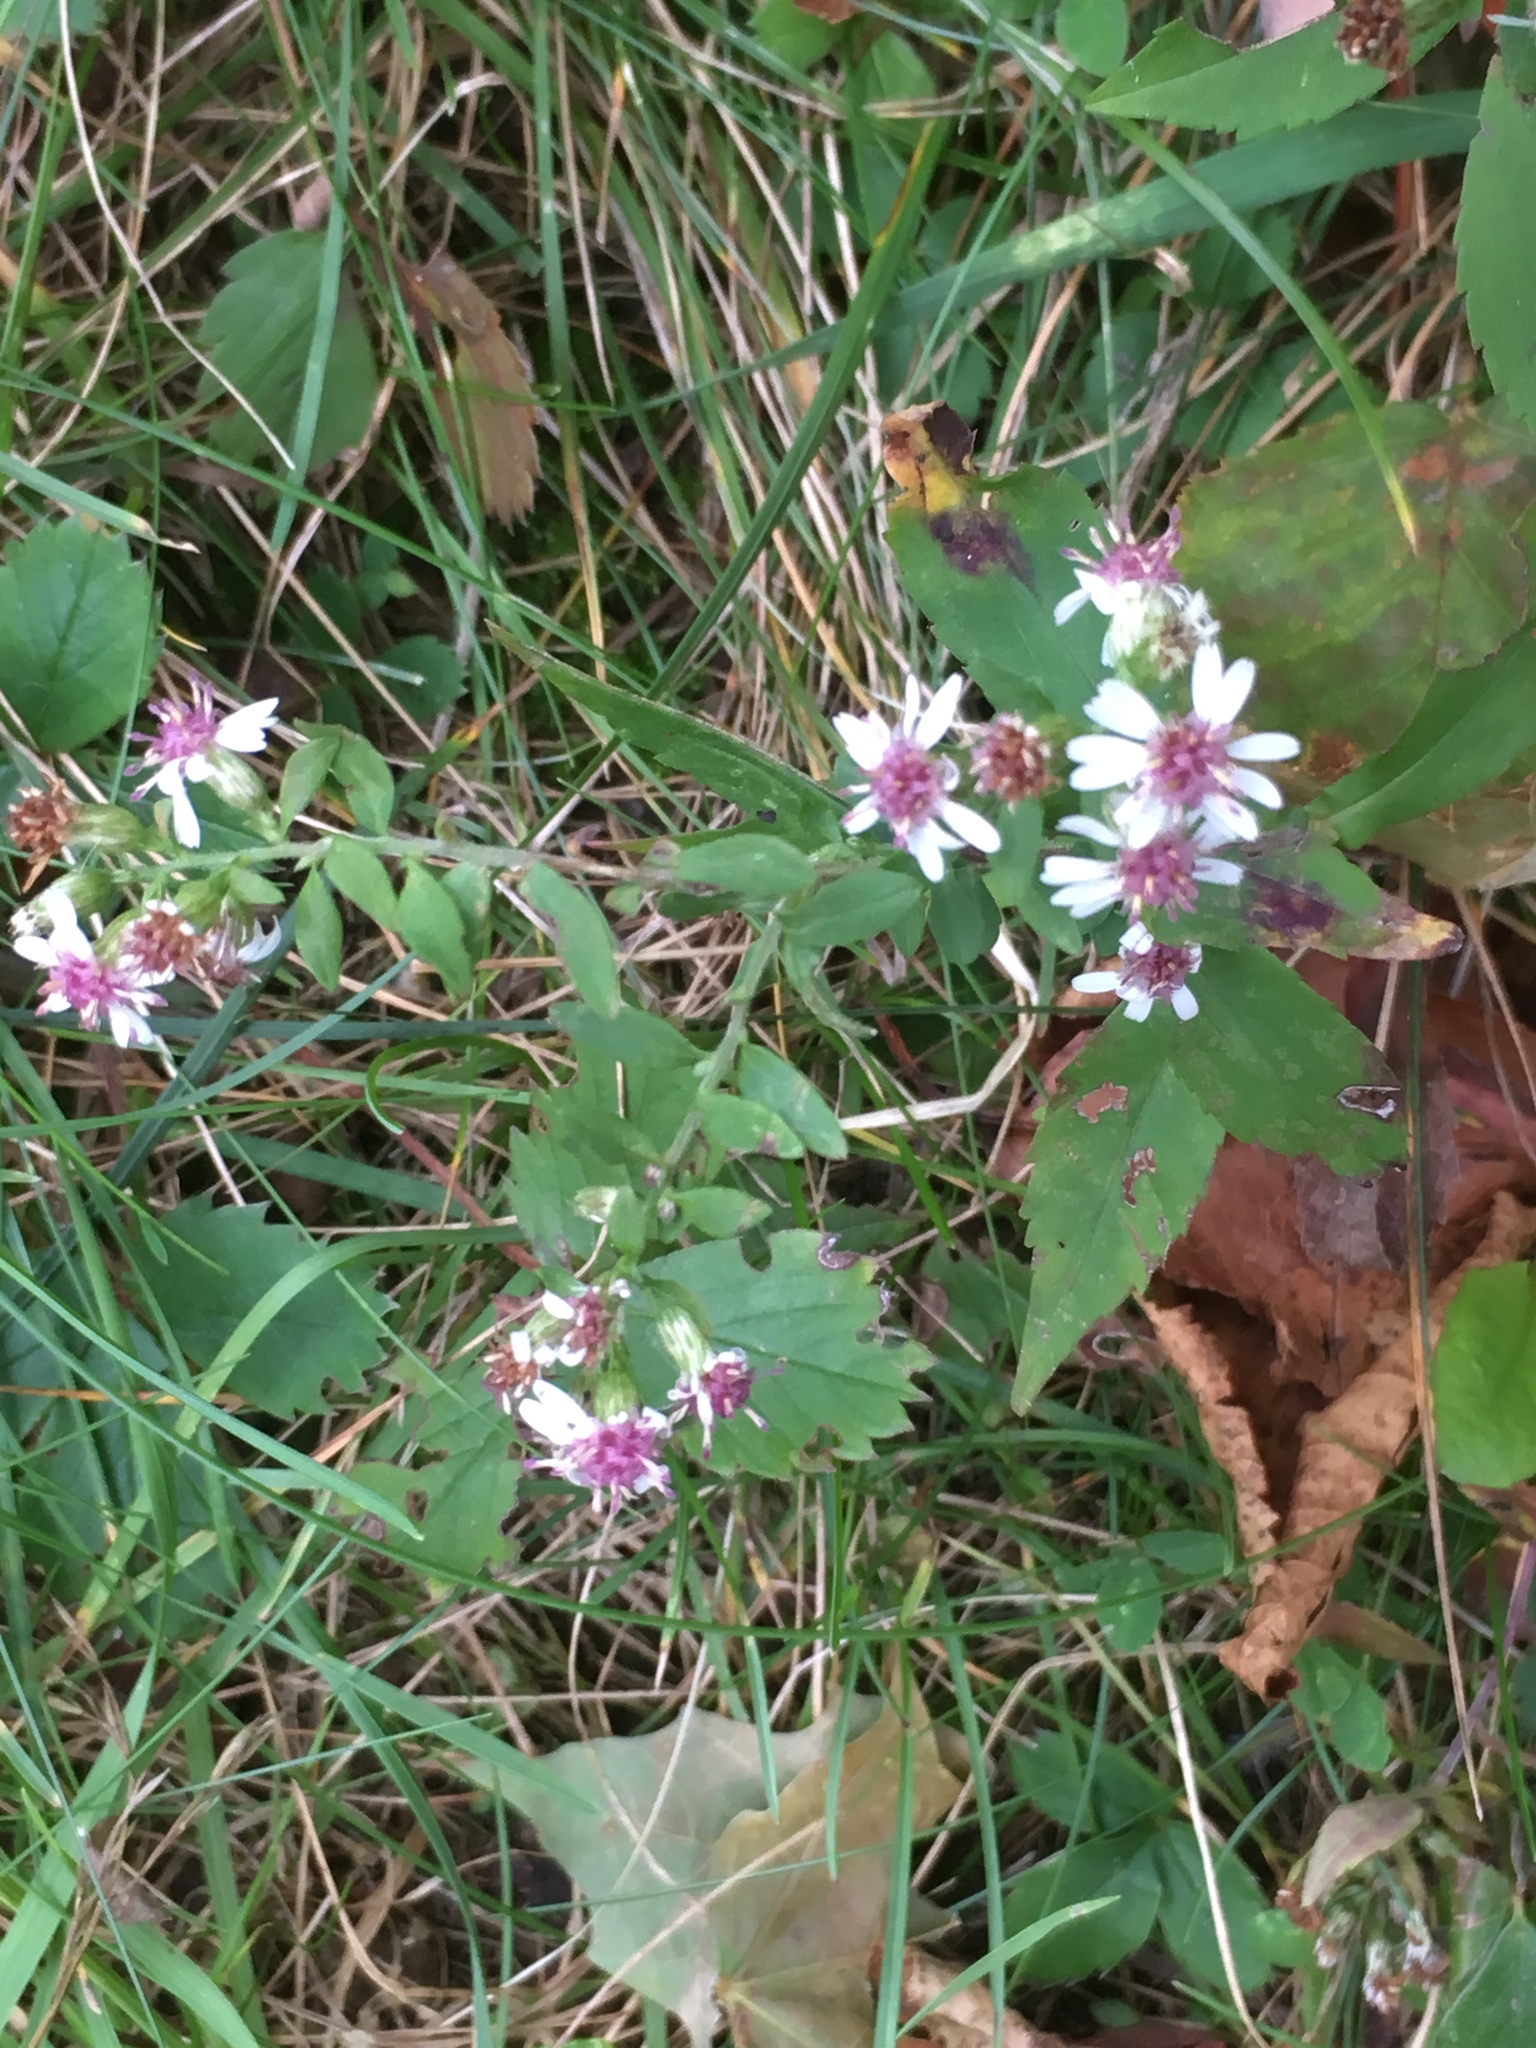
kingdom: Plantae
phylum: Tracheophyta
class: Magnoliopsida
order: Asterales
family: Asteraceae
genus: Symphyotrichum
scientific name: Symphyotrichum lateriflorum
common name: Calico aster
